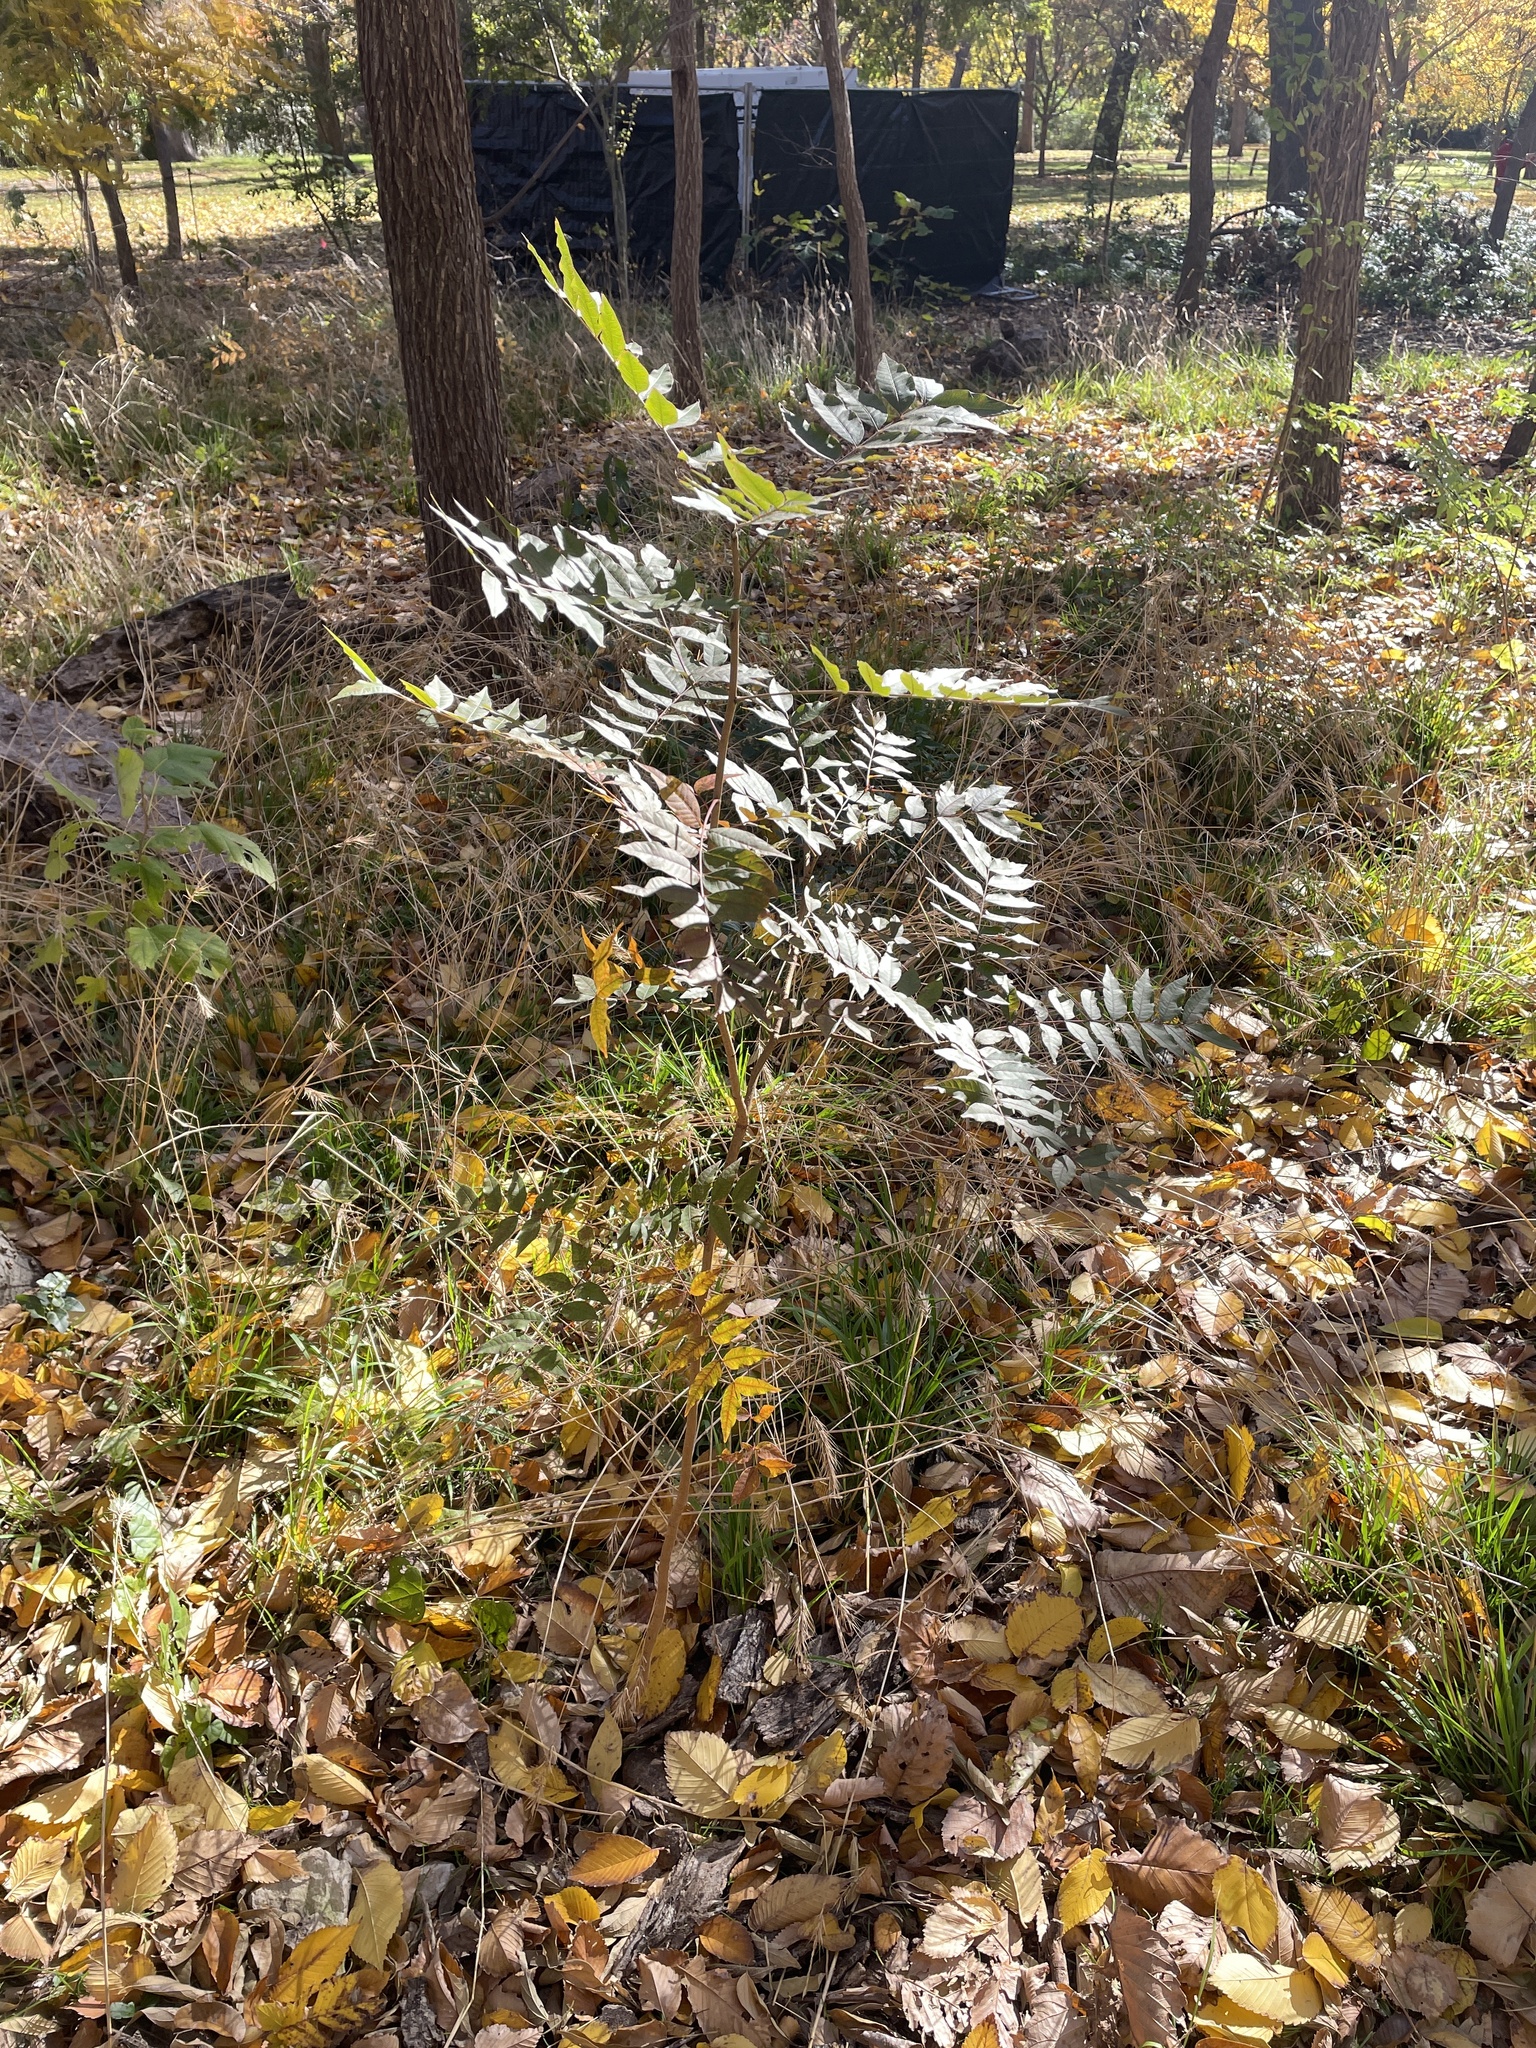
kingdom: Plantae
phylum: Tracheophyta
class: Magnoliopsida
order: Sapindales
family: Anacardiaceae
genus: Pistacia
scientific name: Pistacia chinensis
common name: Chinese pistache
